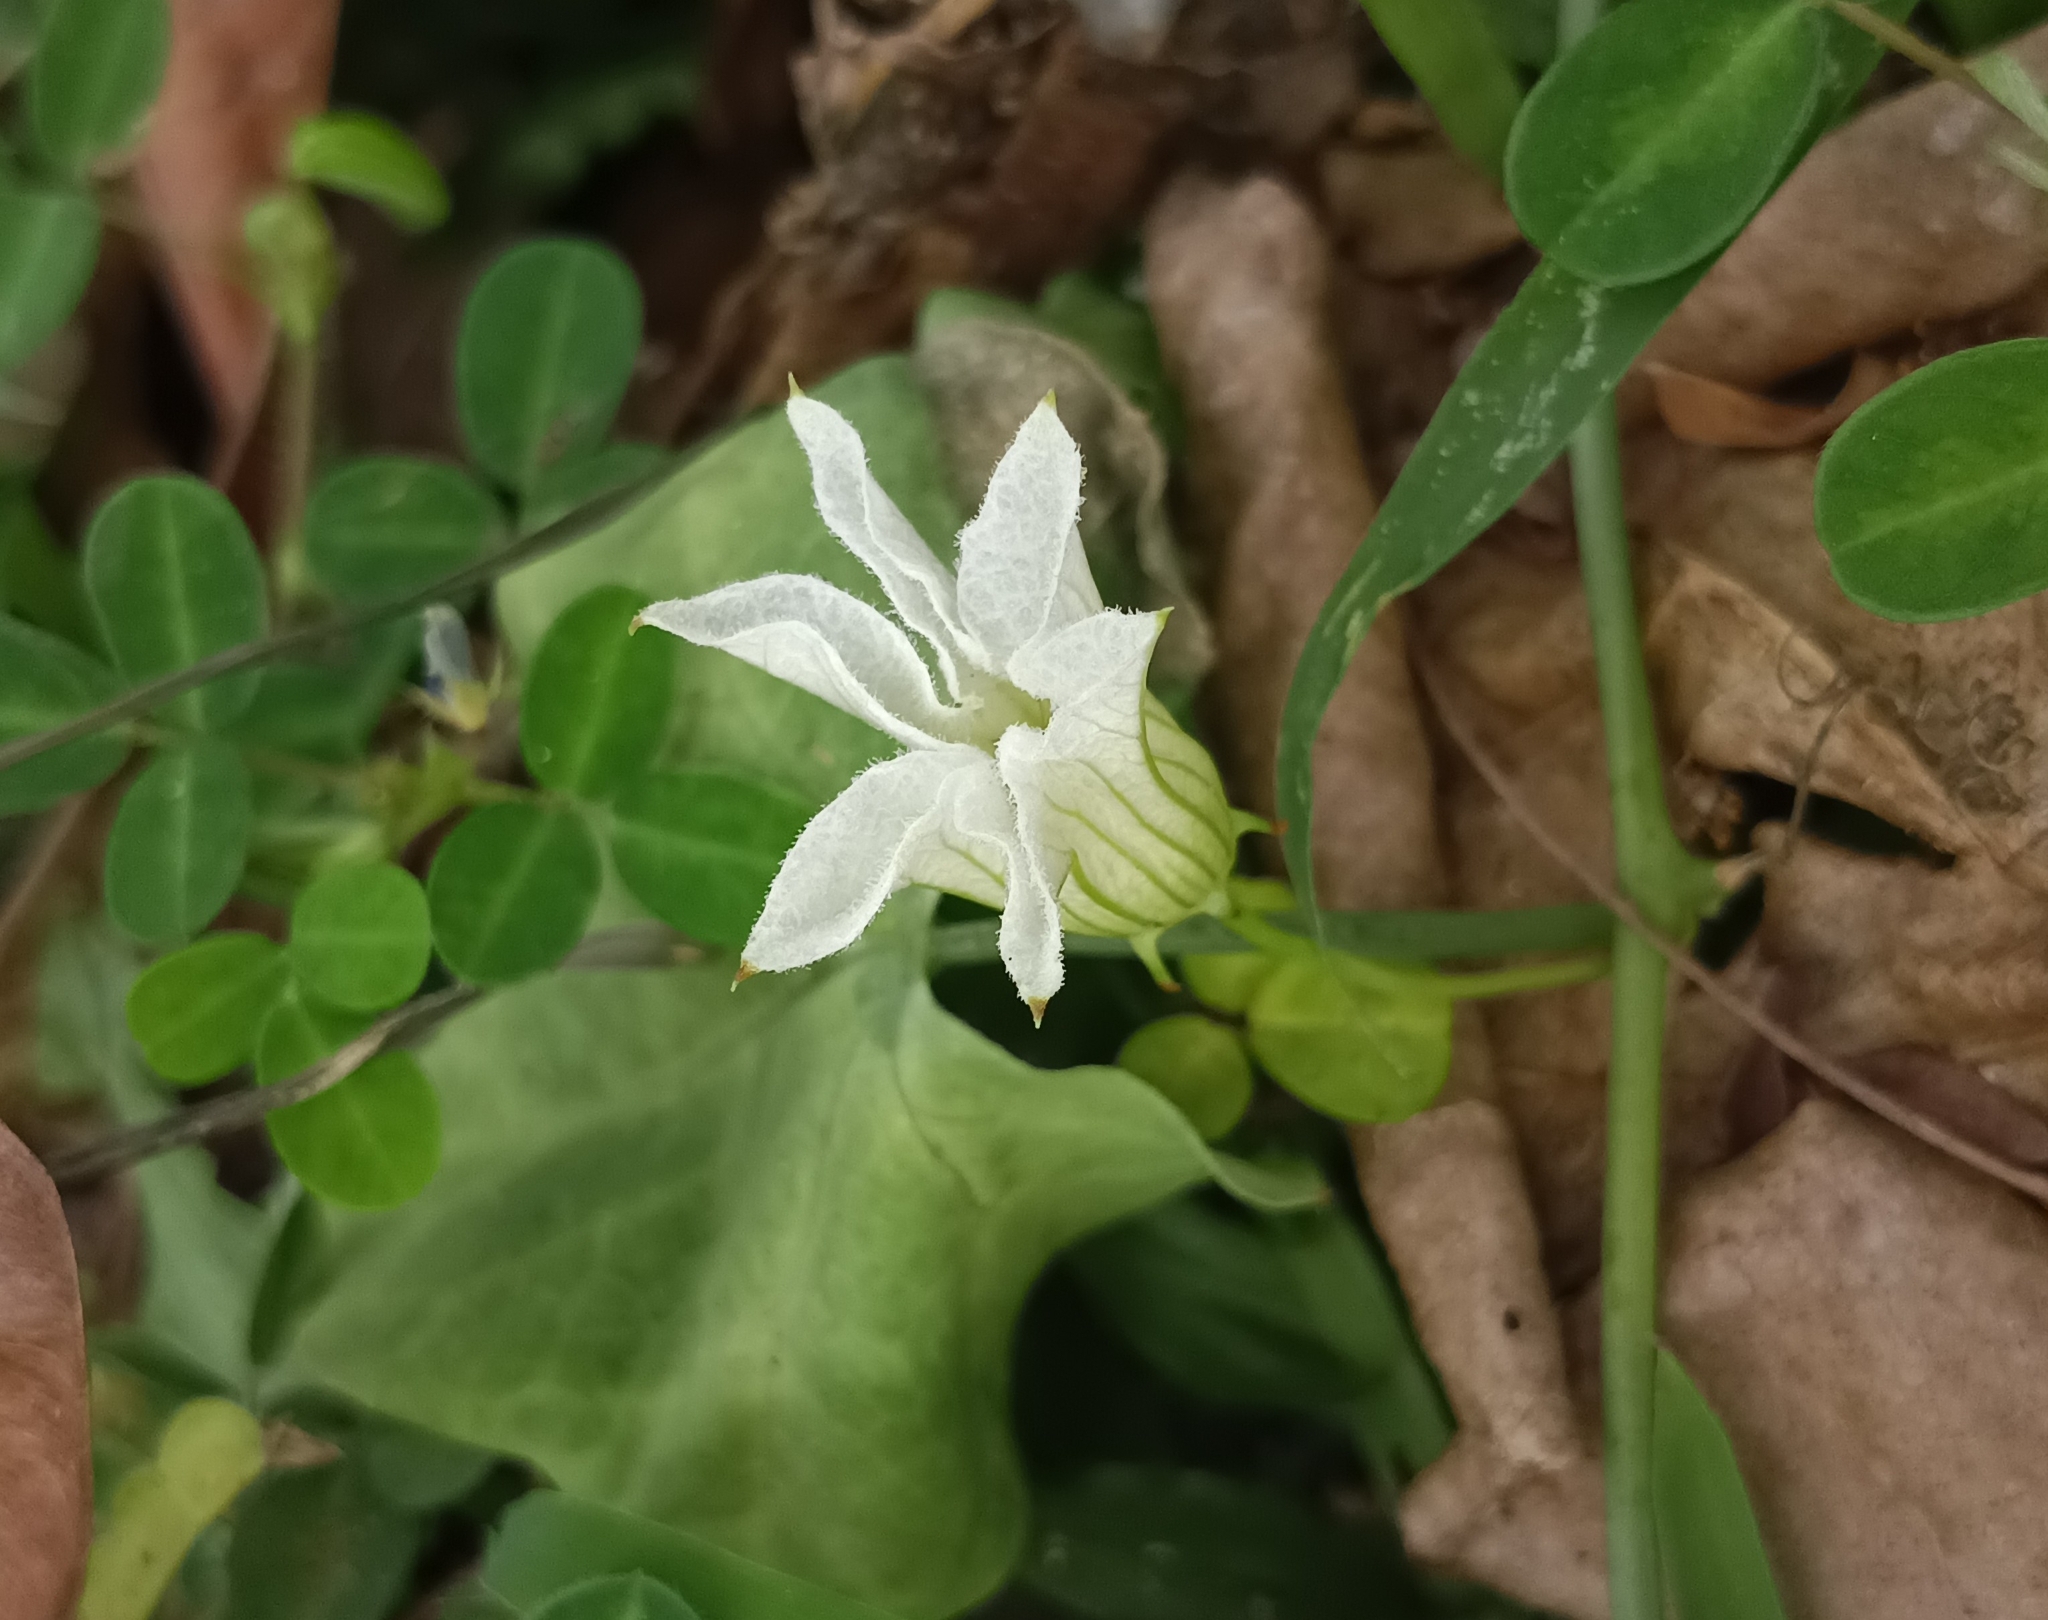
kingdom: Plantae
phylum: Tracheophyta
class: Magnoliopsida
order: Cucurbitales
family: Cucurbitaceae
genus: Coccinia
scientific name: Coccinia grandis
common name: Ivy gourd
